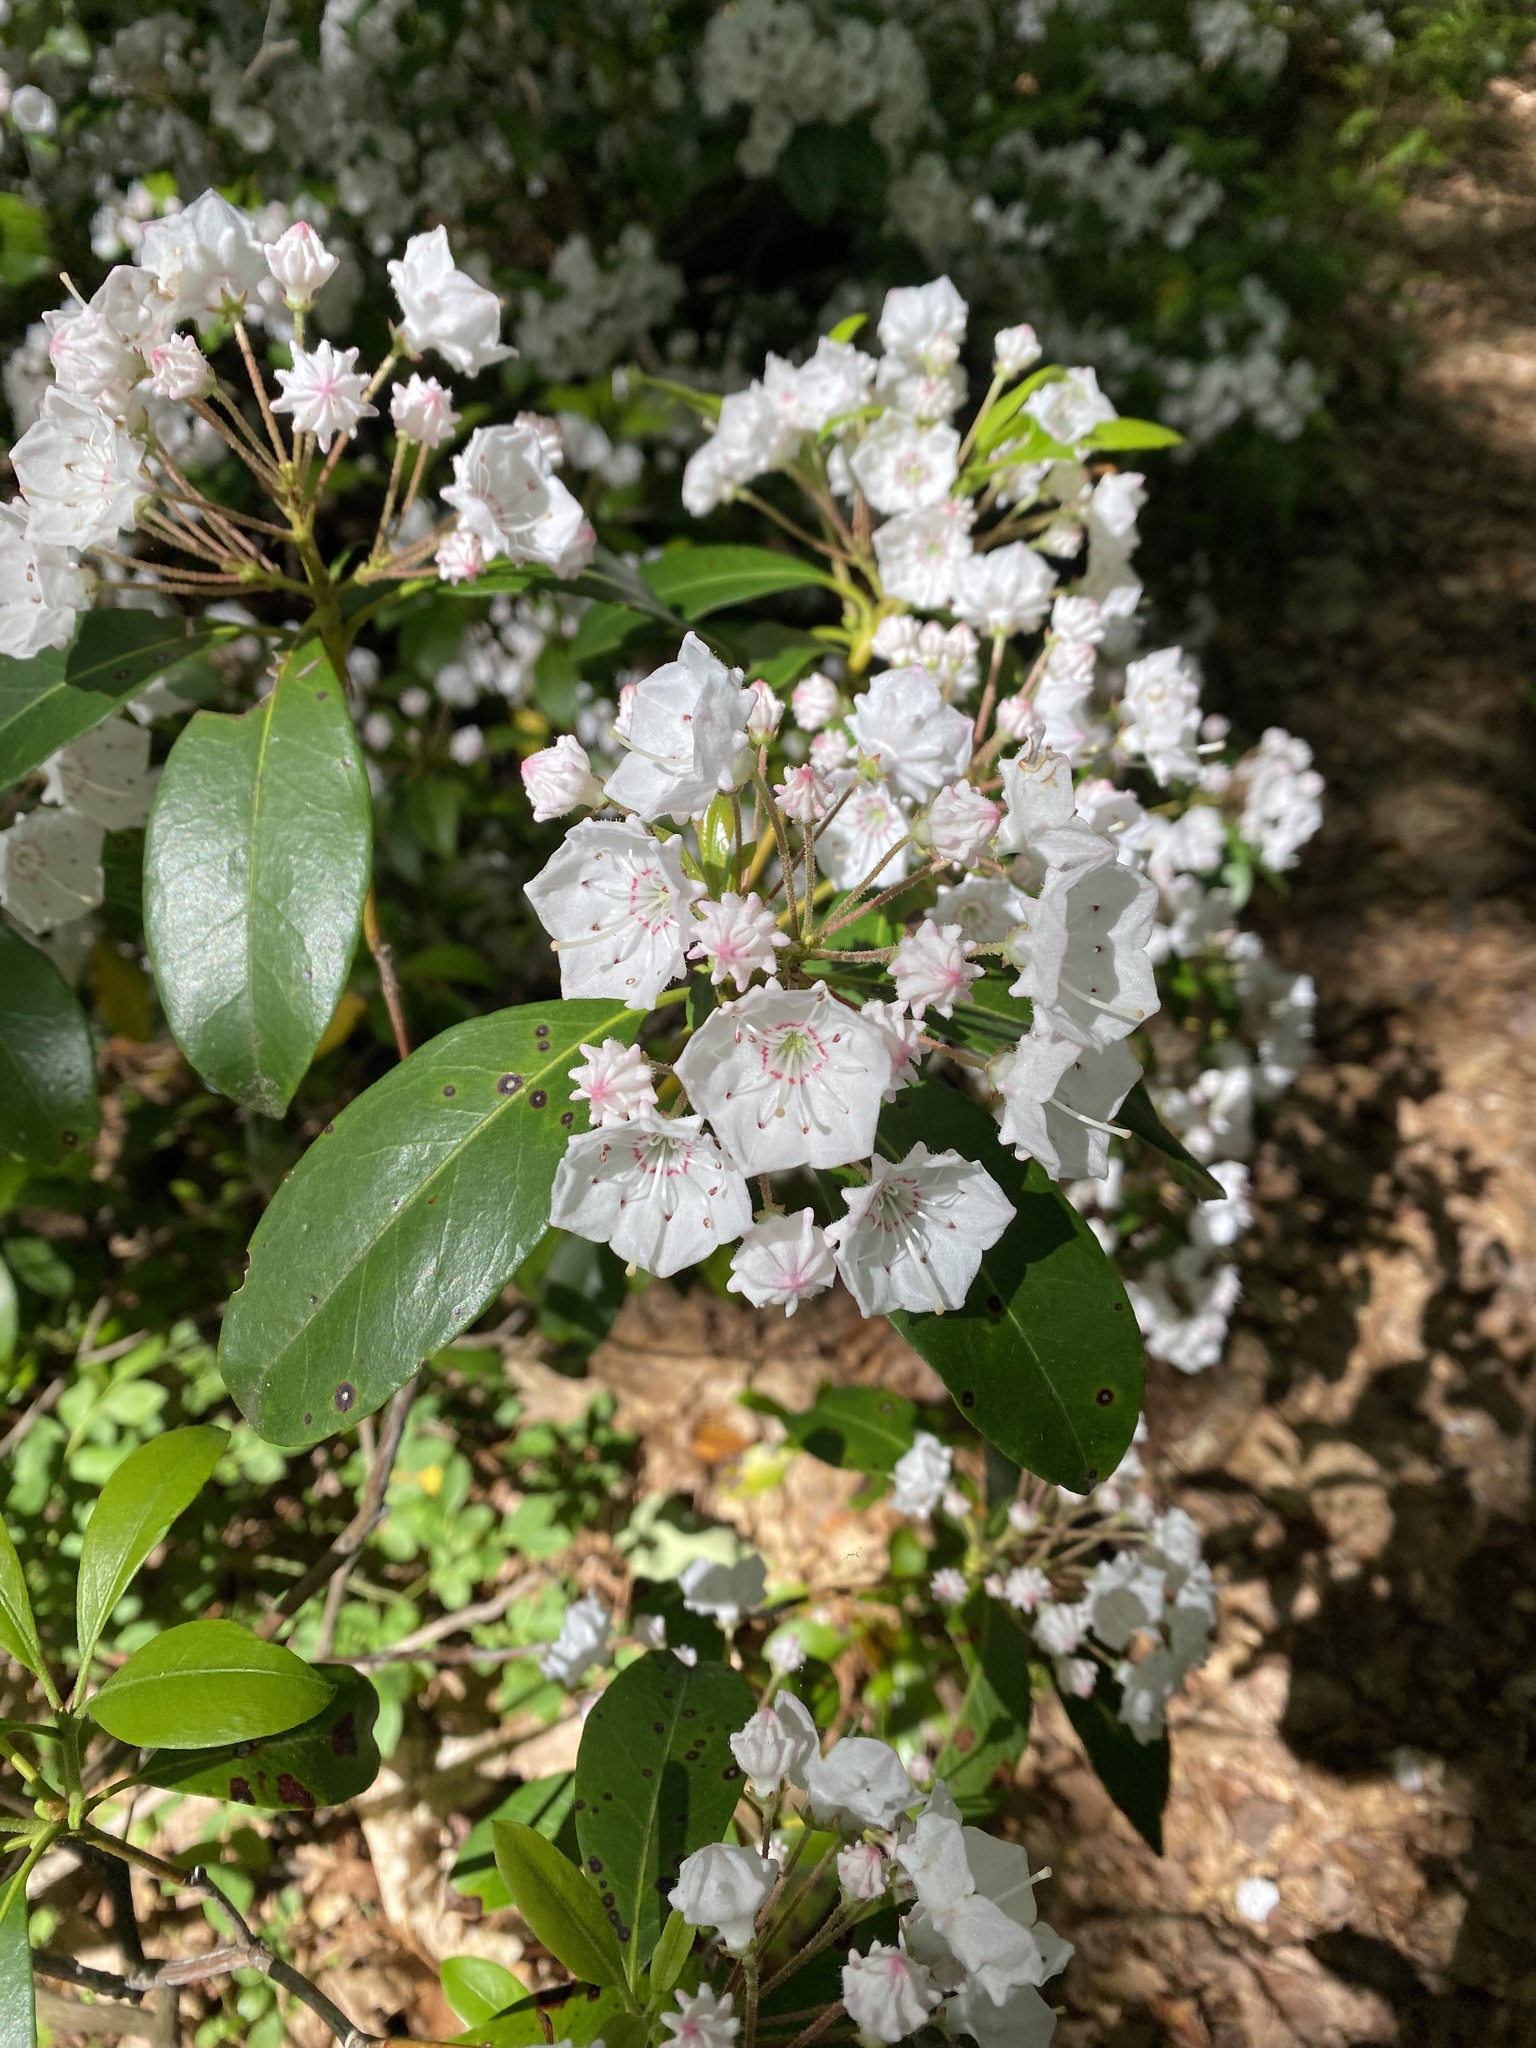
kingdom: Plantae
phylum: Tracheophyta
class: Magnoliopsida
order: Ericales
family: Ericaceae
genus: Kalmia
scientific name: Kalmia latifolia
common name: Mountain-laurel
